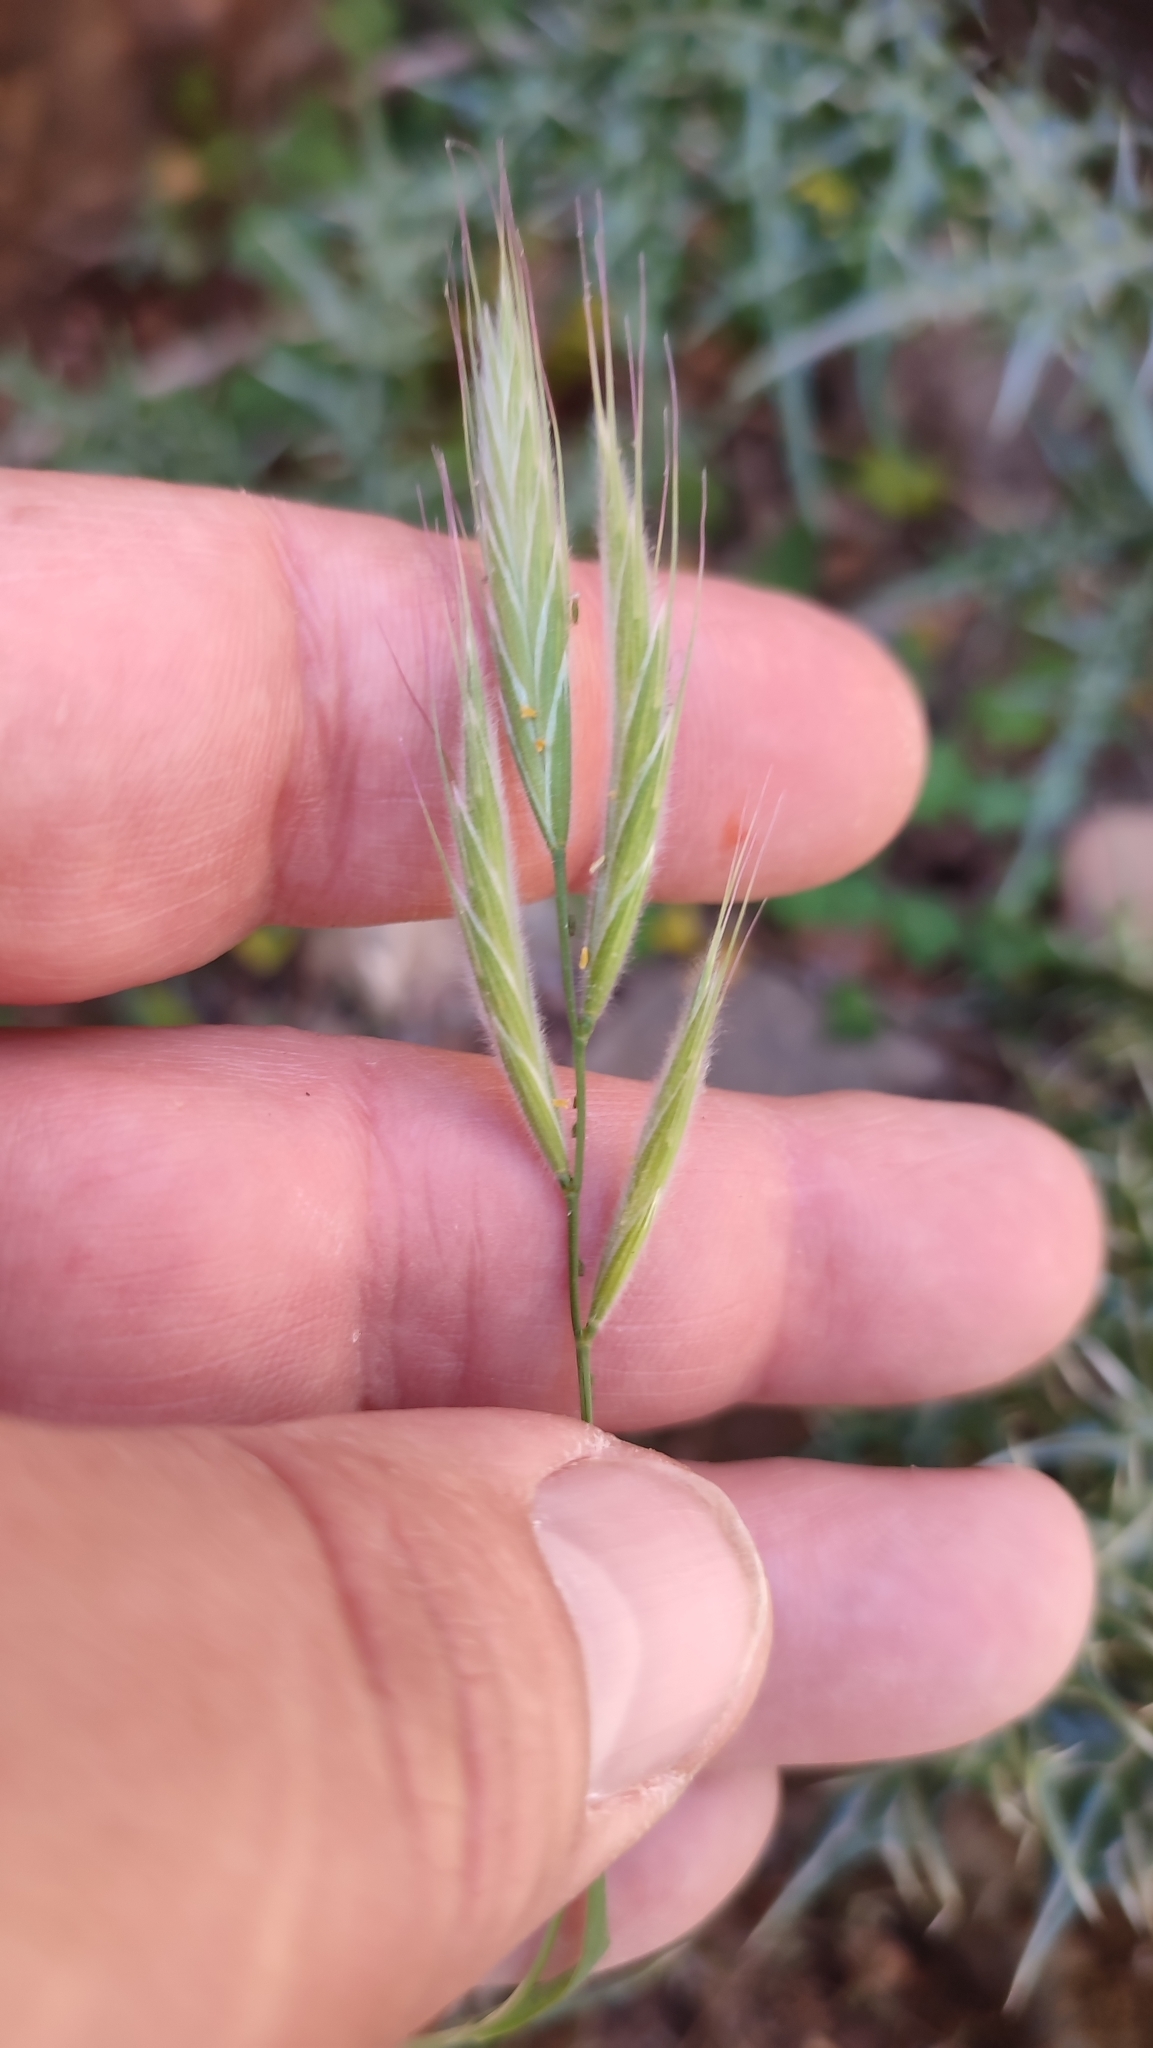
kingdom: Plantae
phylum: Tracheophyta
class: Liliopsida
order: Poales
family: Poaceae
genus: Brachypodium
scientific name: Brachypodium distachyon
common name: Stiff brome
